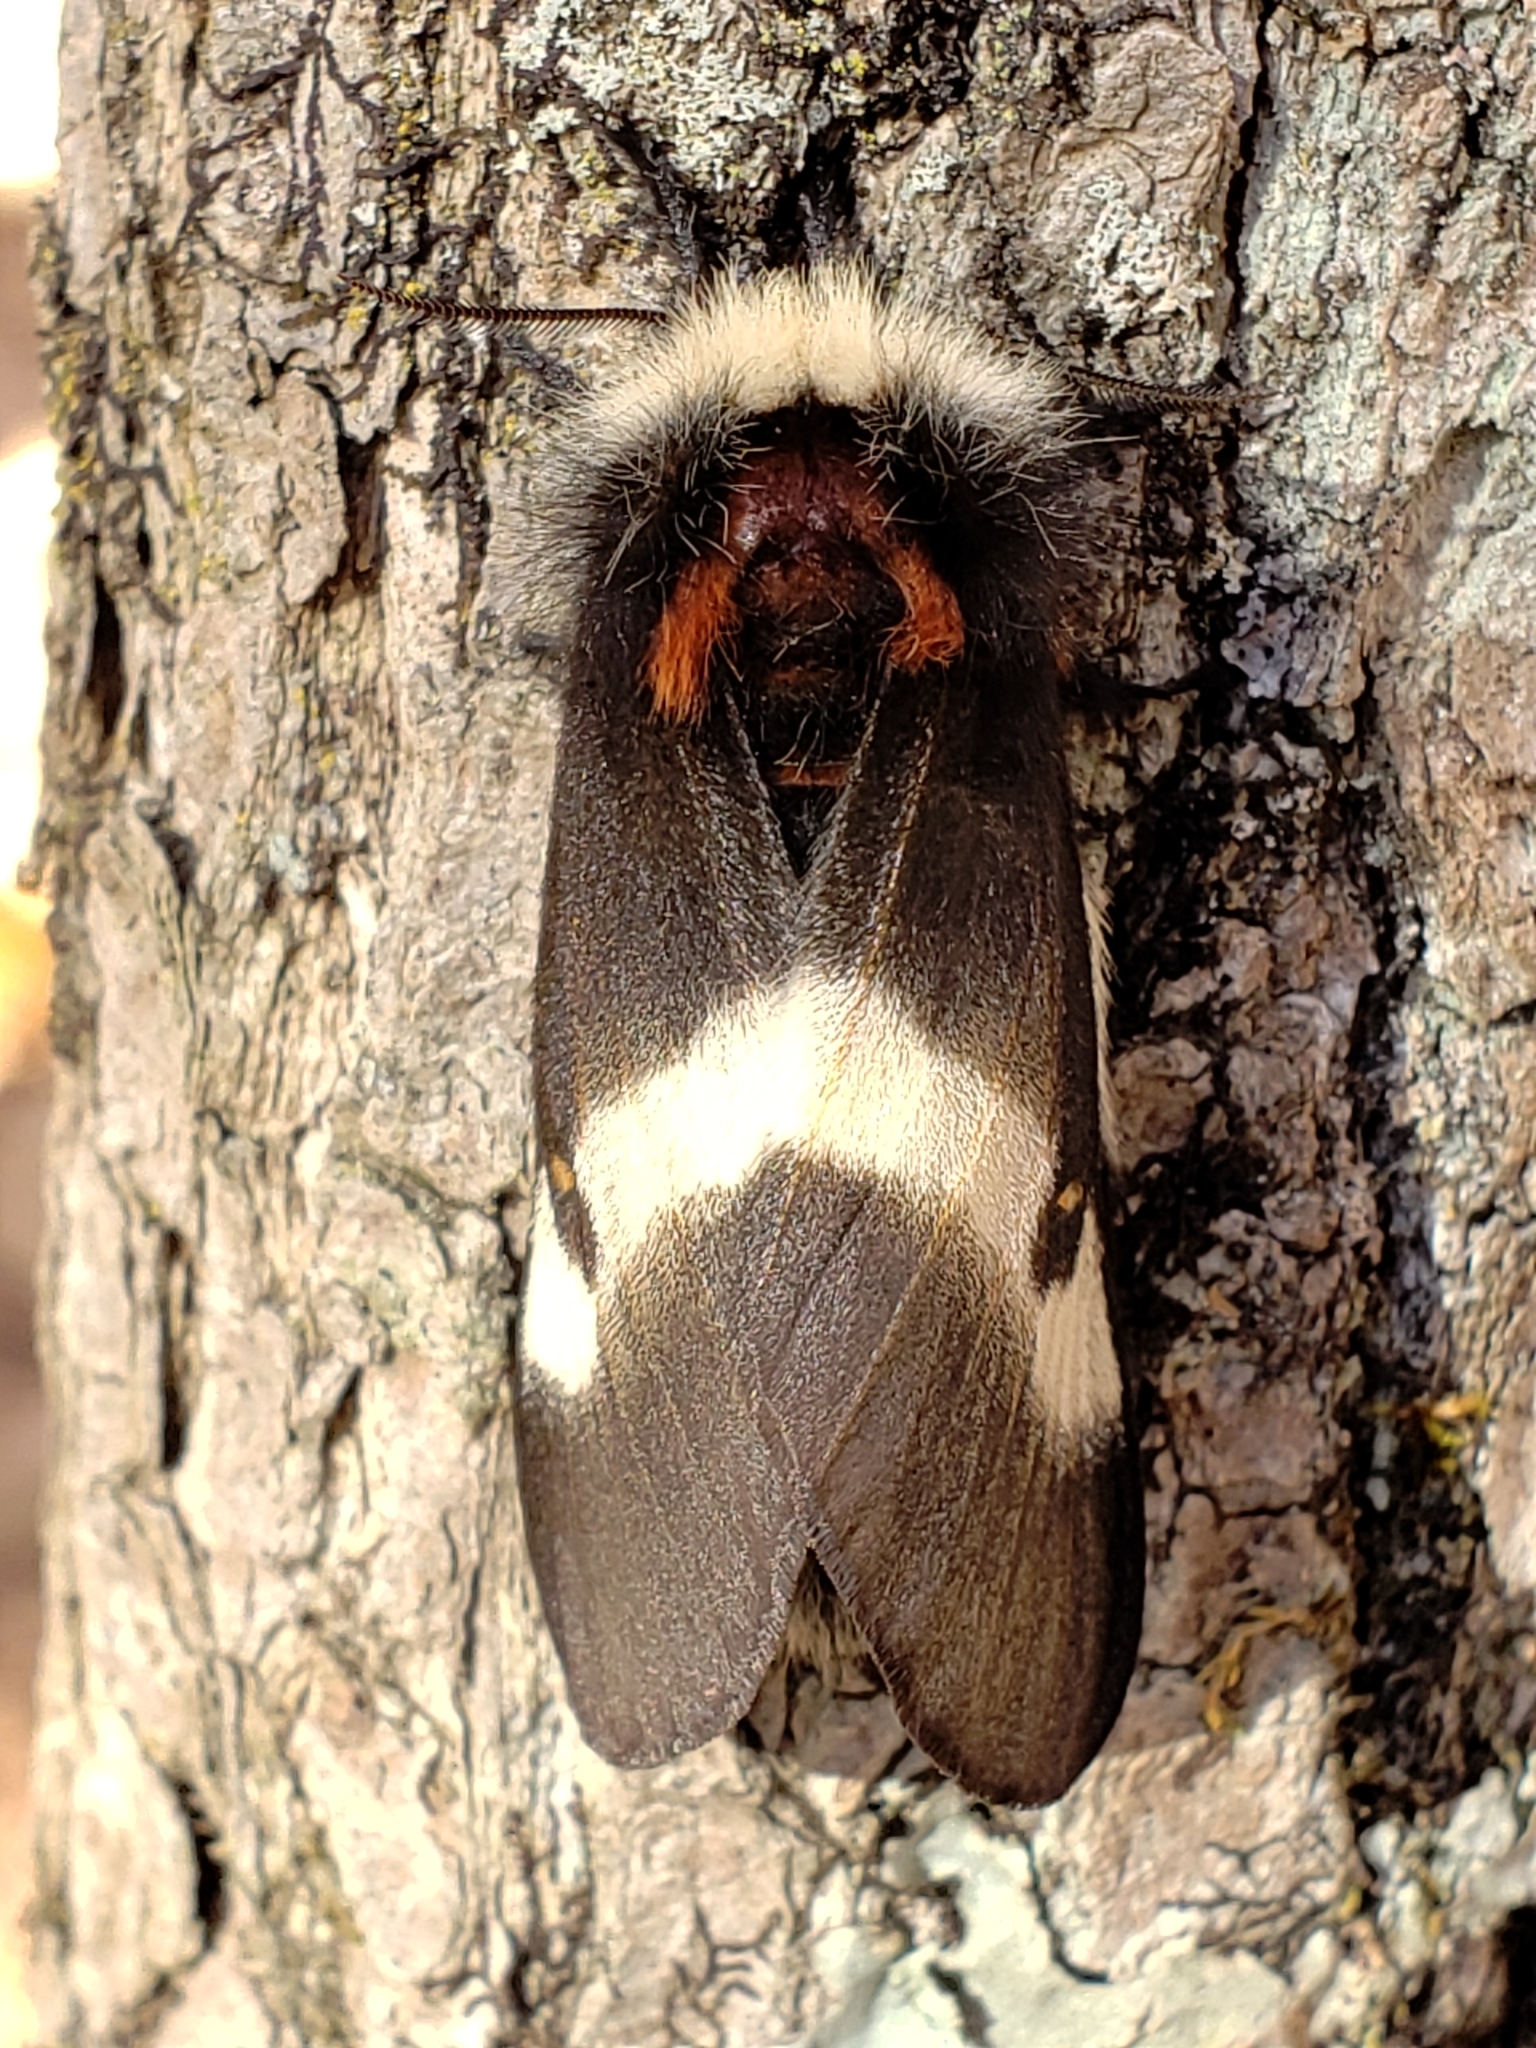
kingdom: Animalia
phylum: Arthropoda
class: Insecta
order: Lepidoptera
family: Saturniidae
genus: Hemileuca
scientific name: Hemileuca maia
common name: Eastern buckmoth
